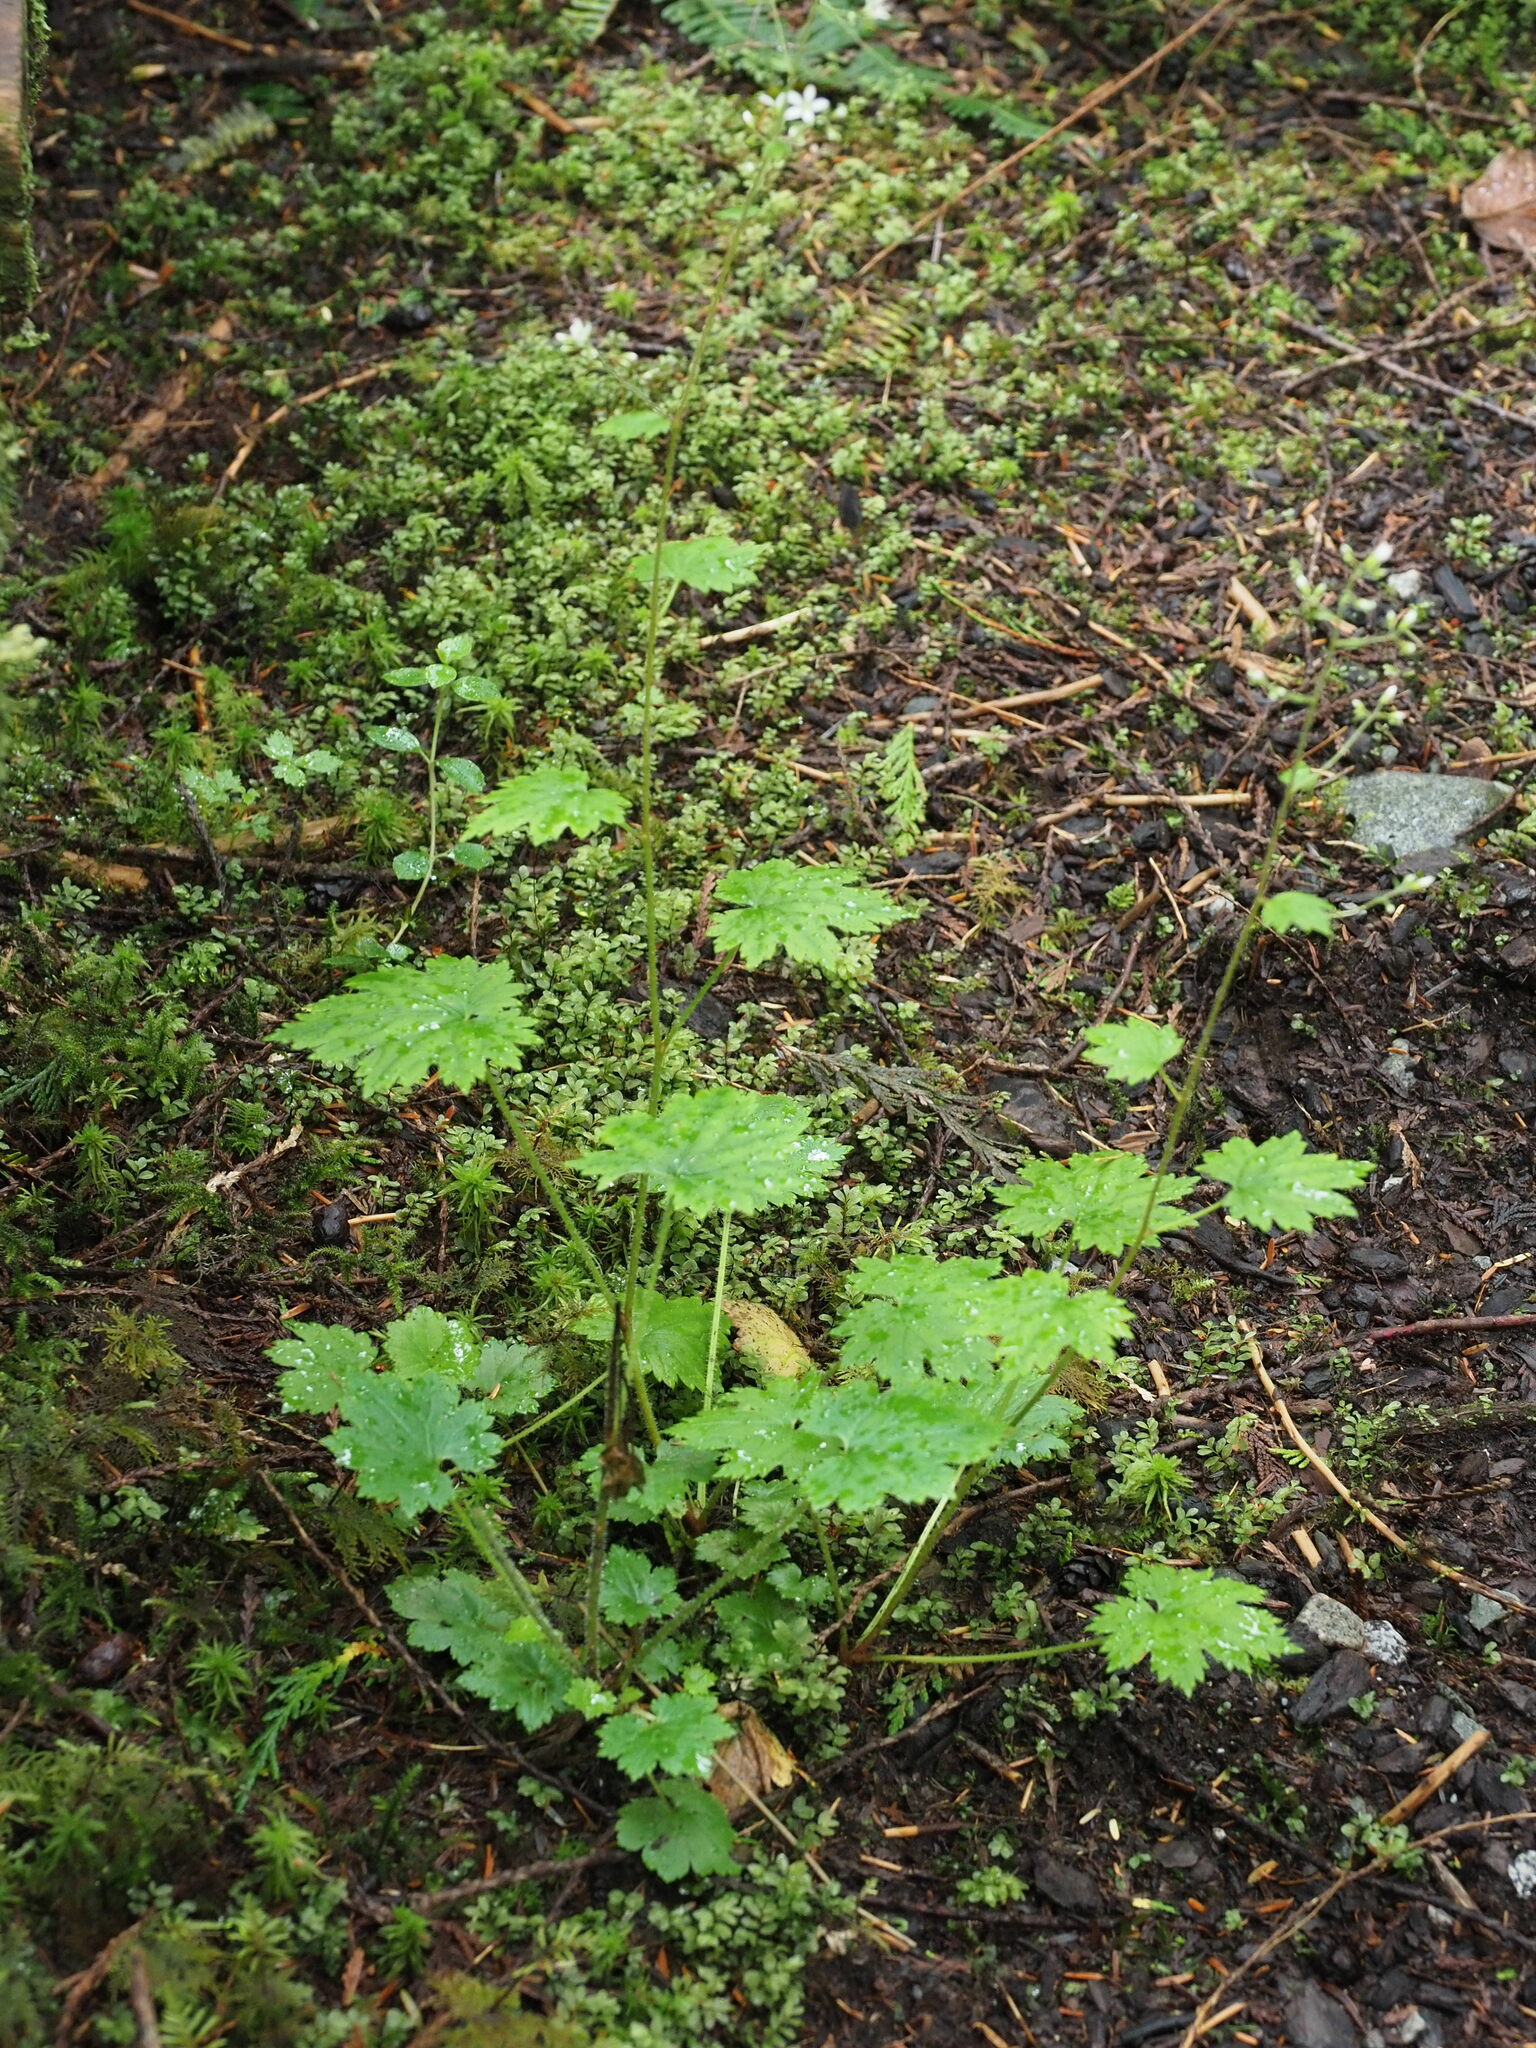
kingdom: Plantae
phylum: Tracheophyta
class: Magnoliopsida
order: Saxifragales
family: Saxifragaceae
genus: Boykinia
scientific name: Boykinia occidentalis
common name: Coast boykinia
